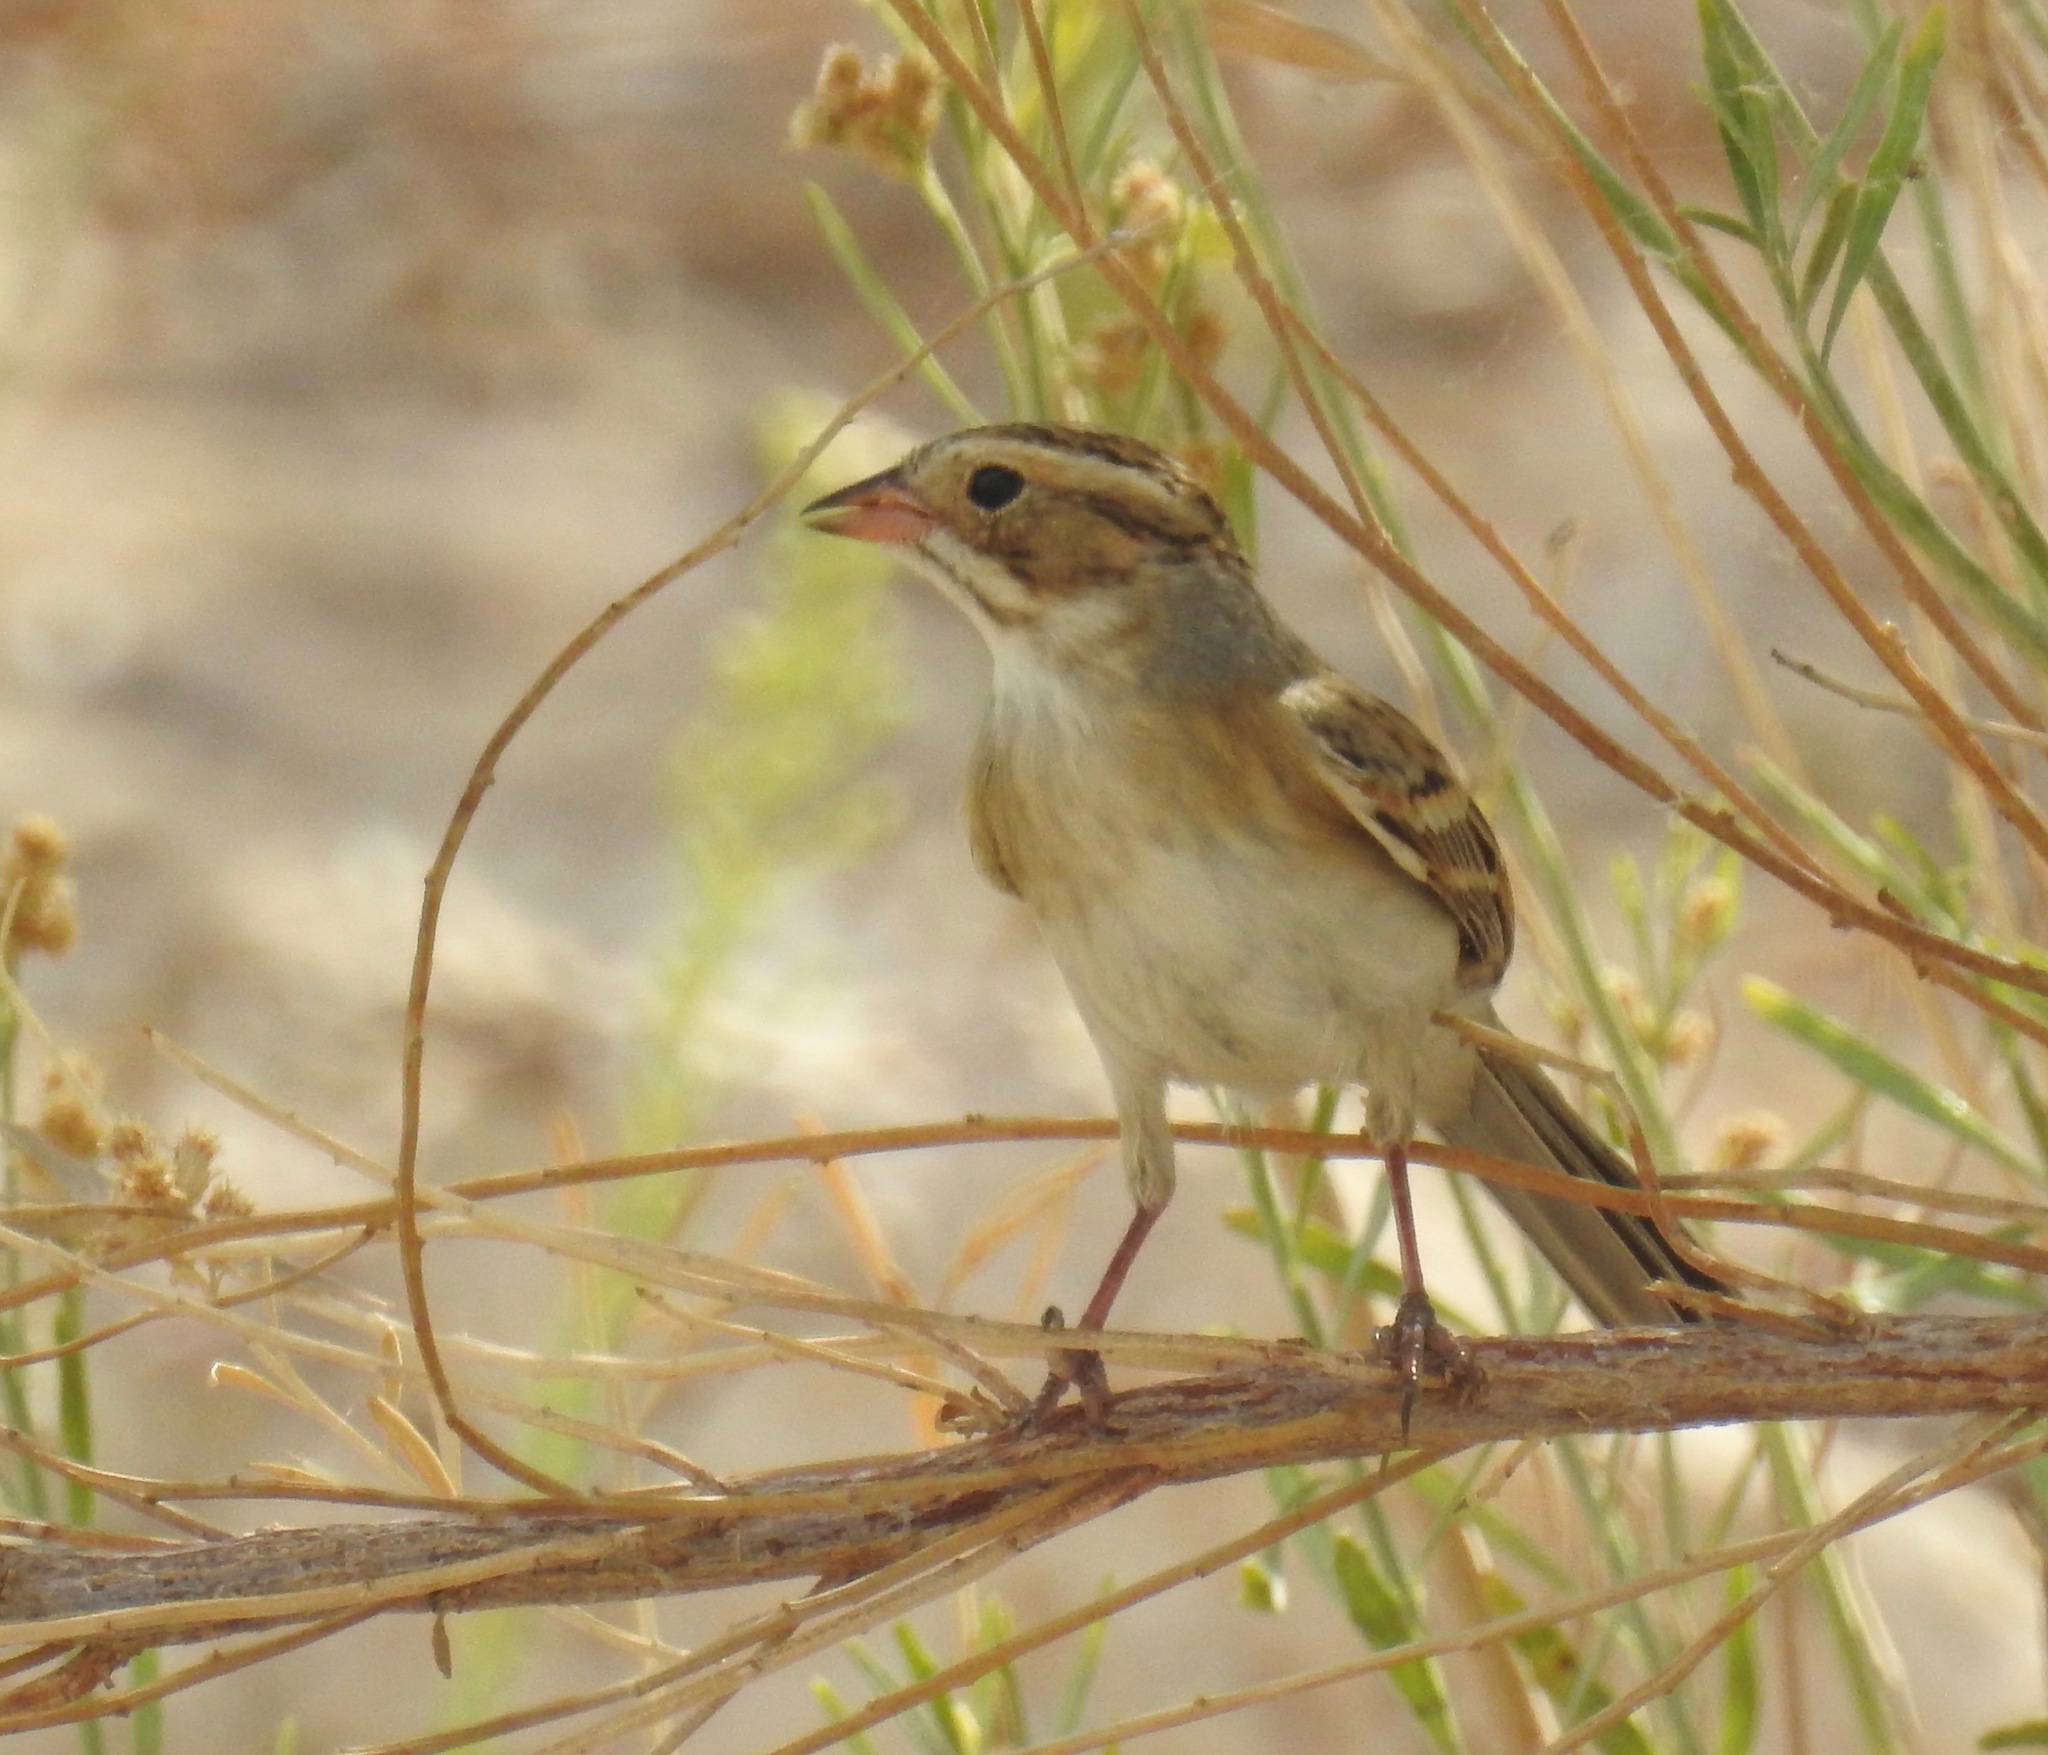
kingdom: Animalia
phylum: Chordata
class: Aves
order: Passeriformes
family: Passerellidae
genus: Spizella
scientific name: Spizella pallida
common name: Clay-colored sparrow
